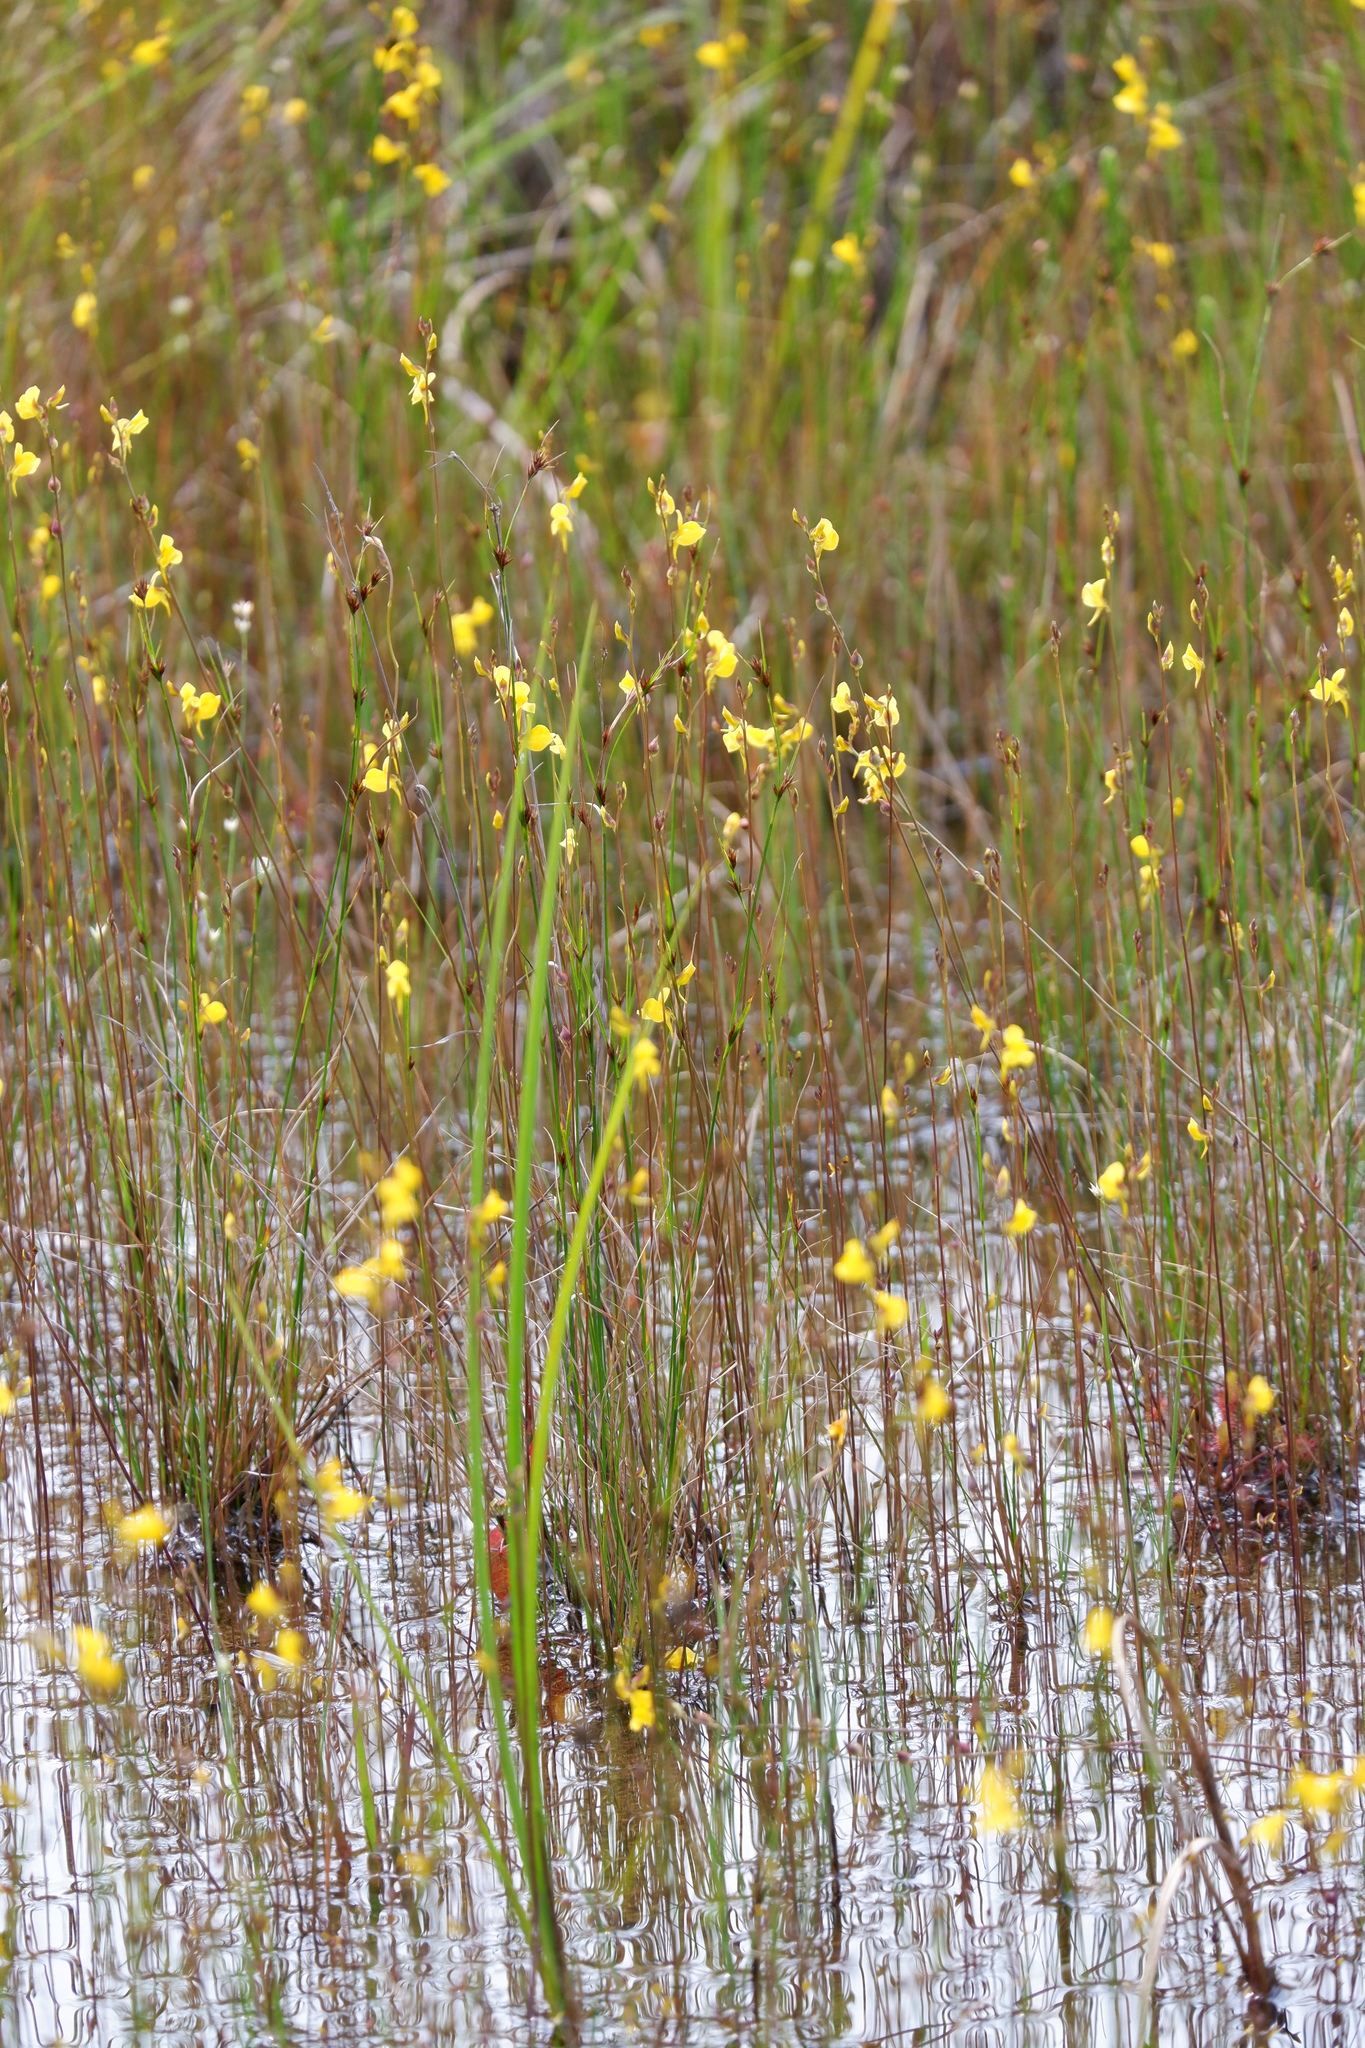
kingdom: Plantae
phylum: Tracheophyta
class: Magnoliopsida
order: Lamiales
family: Lentibulariaceae
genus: Utricularia
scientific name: Utricularia juncea
